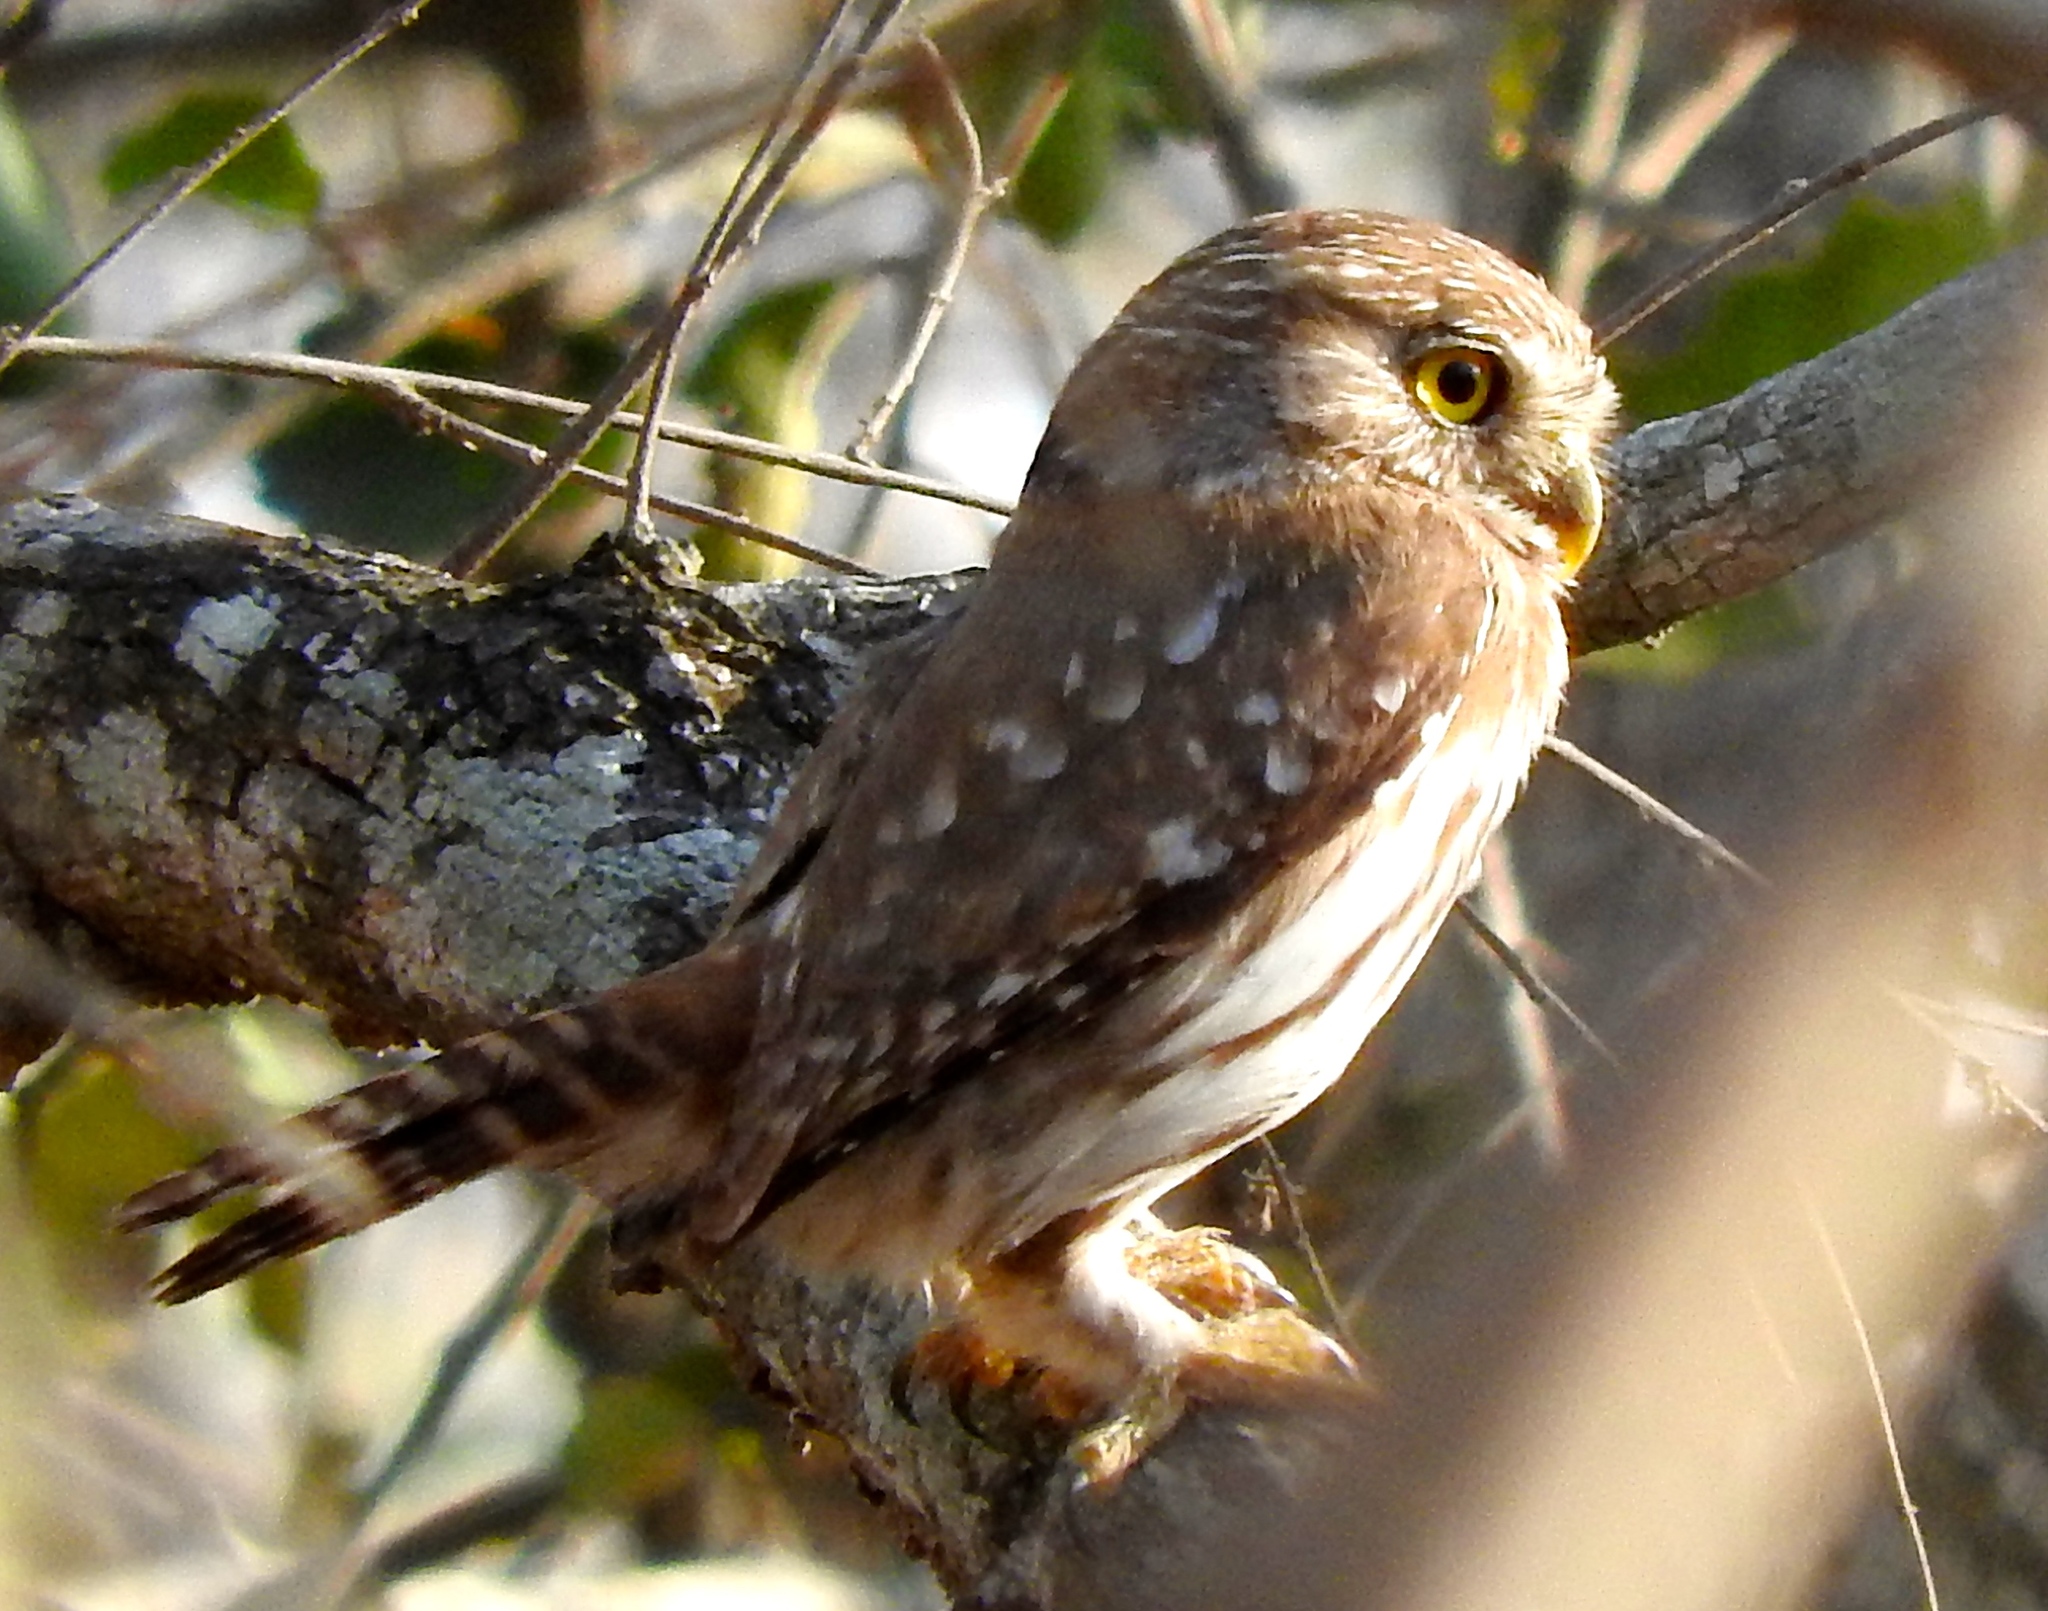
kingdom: Animalia
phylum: Chordata
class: Aves
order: Strigiformes
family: Strigidae
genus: Glaucidium
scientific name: Glaucidium brasilianum
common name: Ferruginous pygmy-owl
